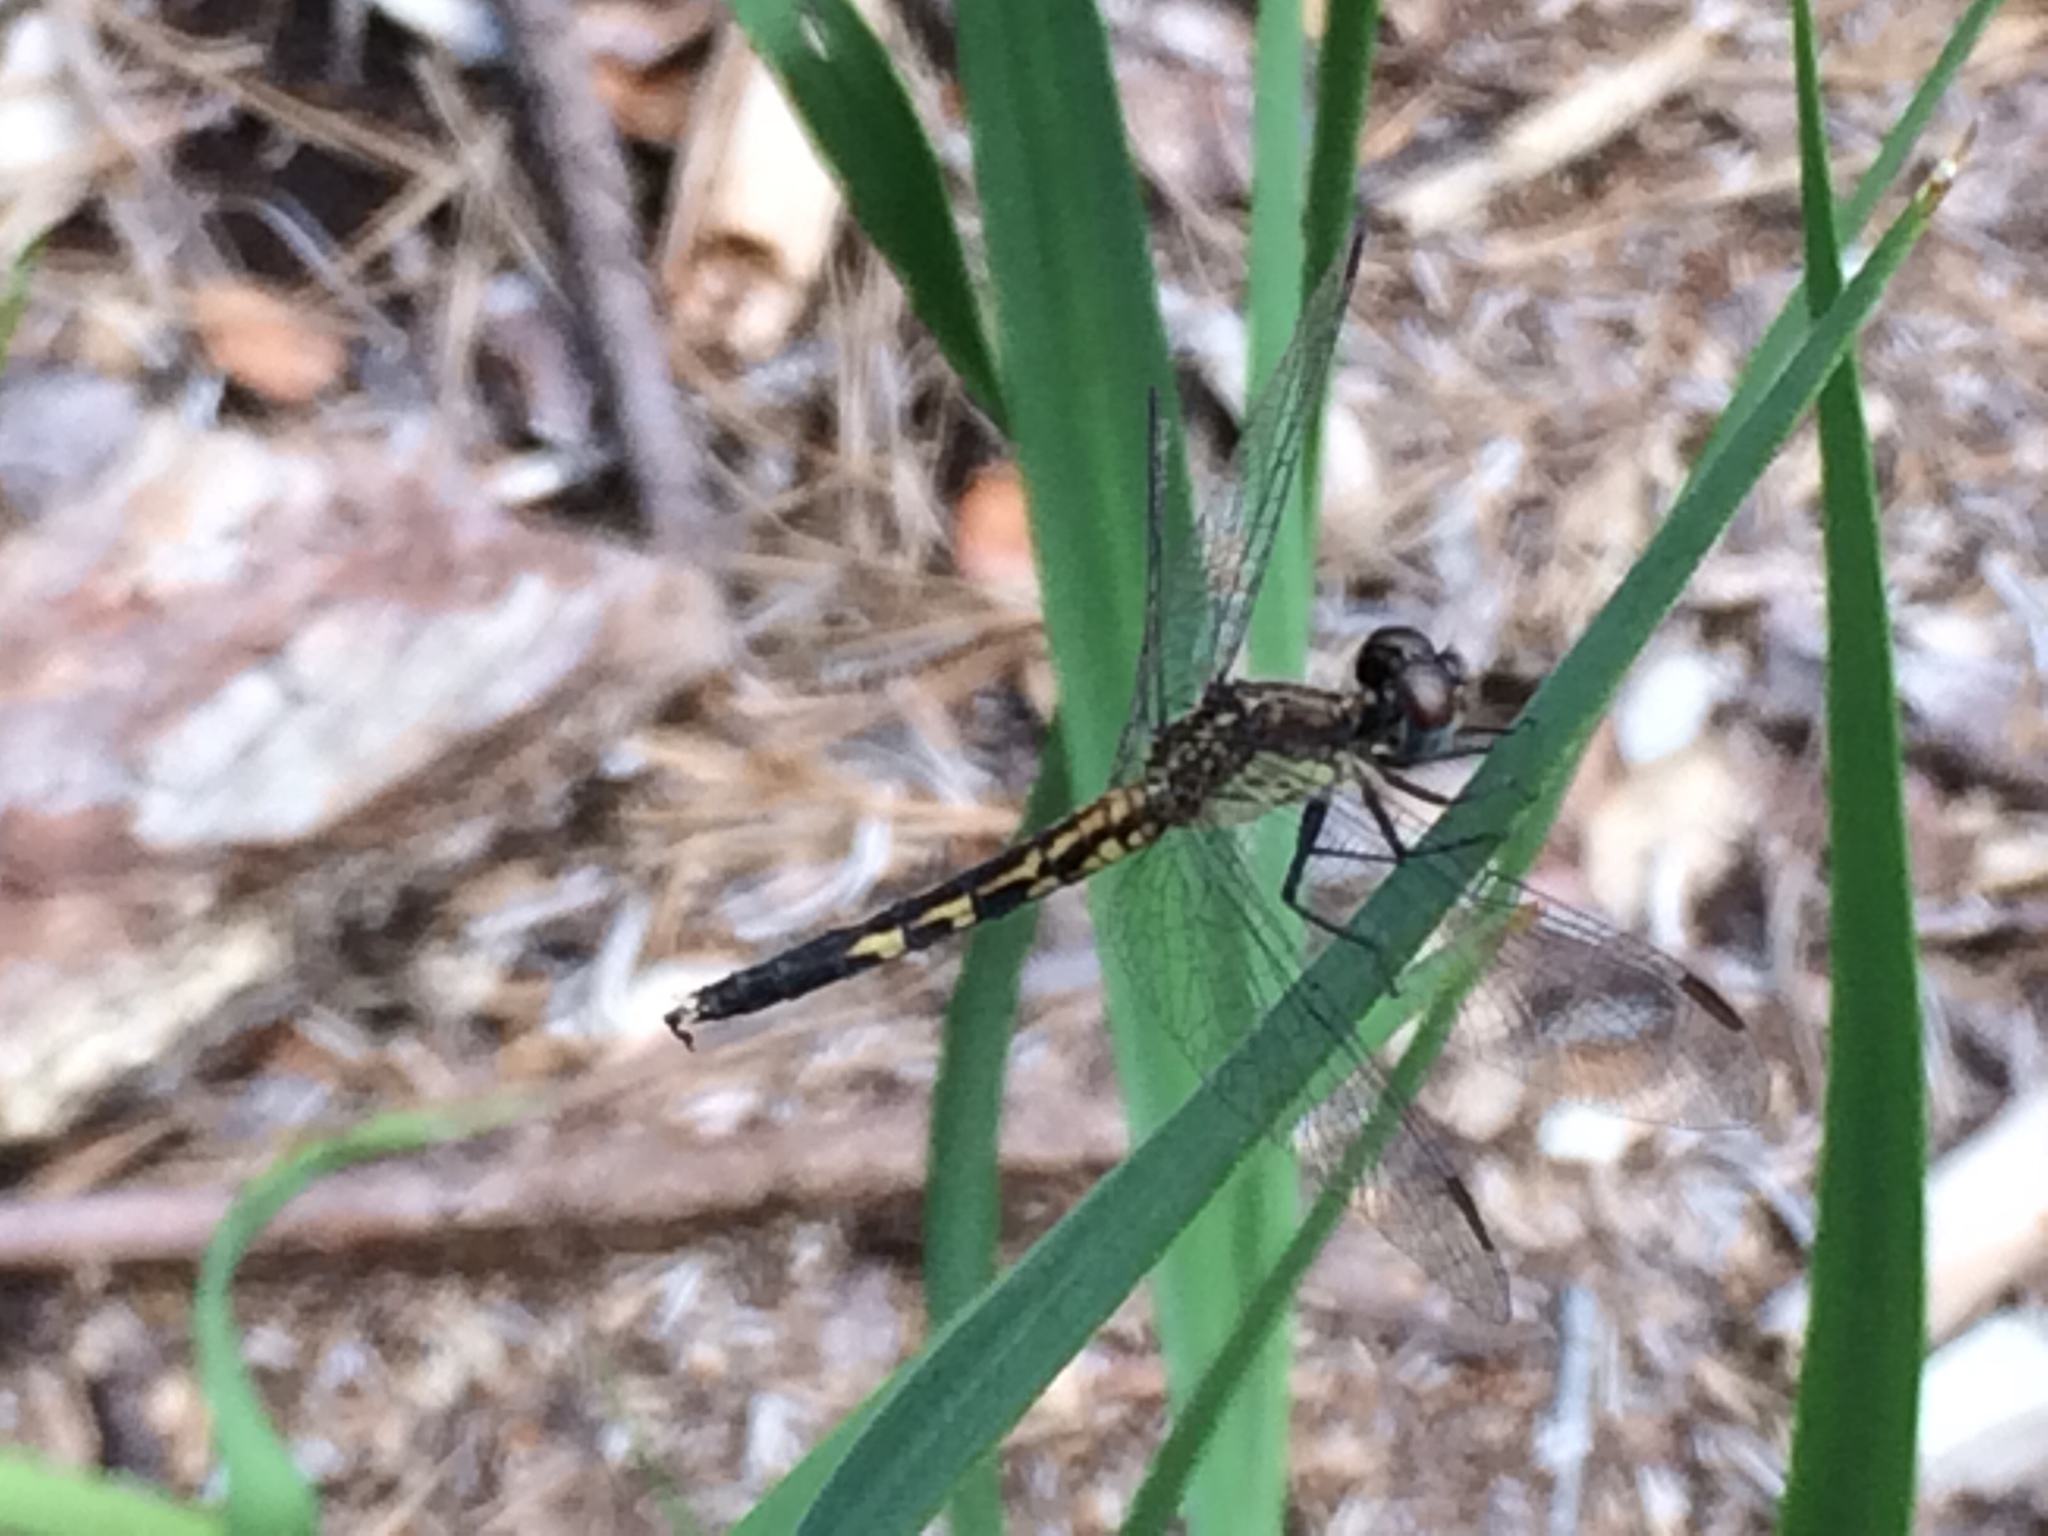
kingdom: Animalia
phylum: Arthropoda
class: Insecta
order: Odonata
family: Libellulidae
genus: Erythrodiplax
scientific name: Erythrodiplax minuscula
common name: Little blue dragonlet
